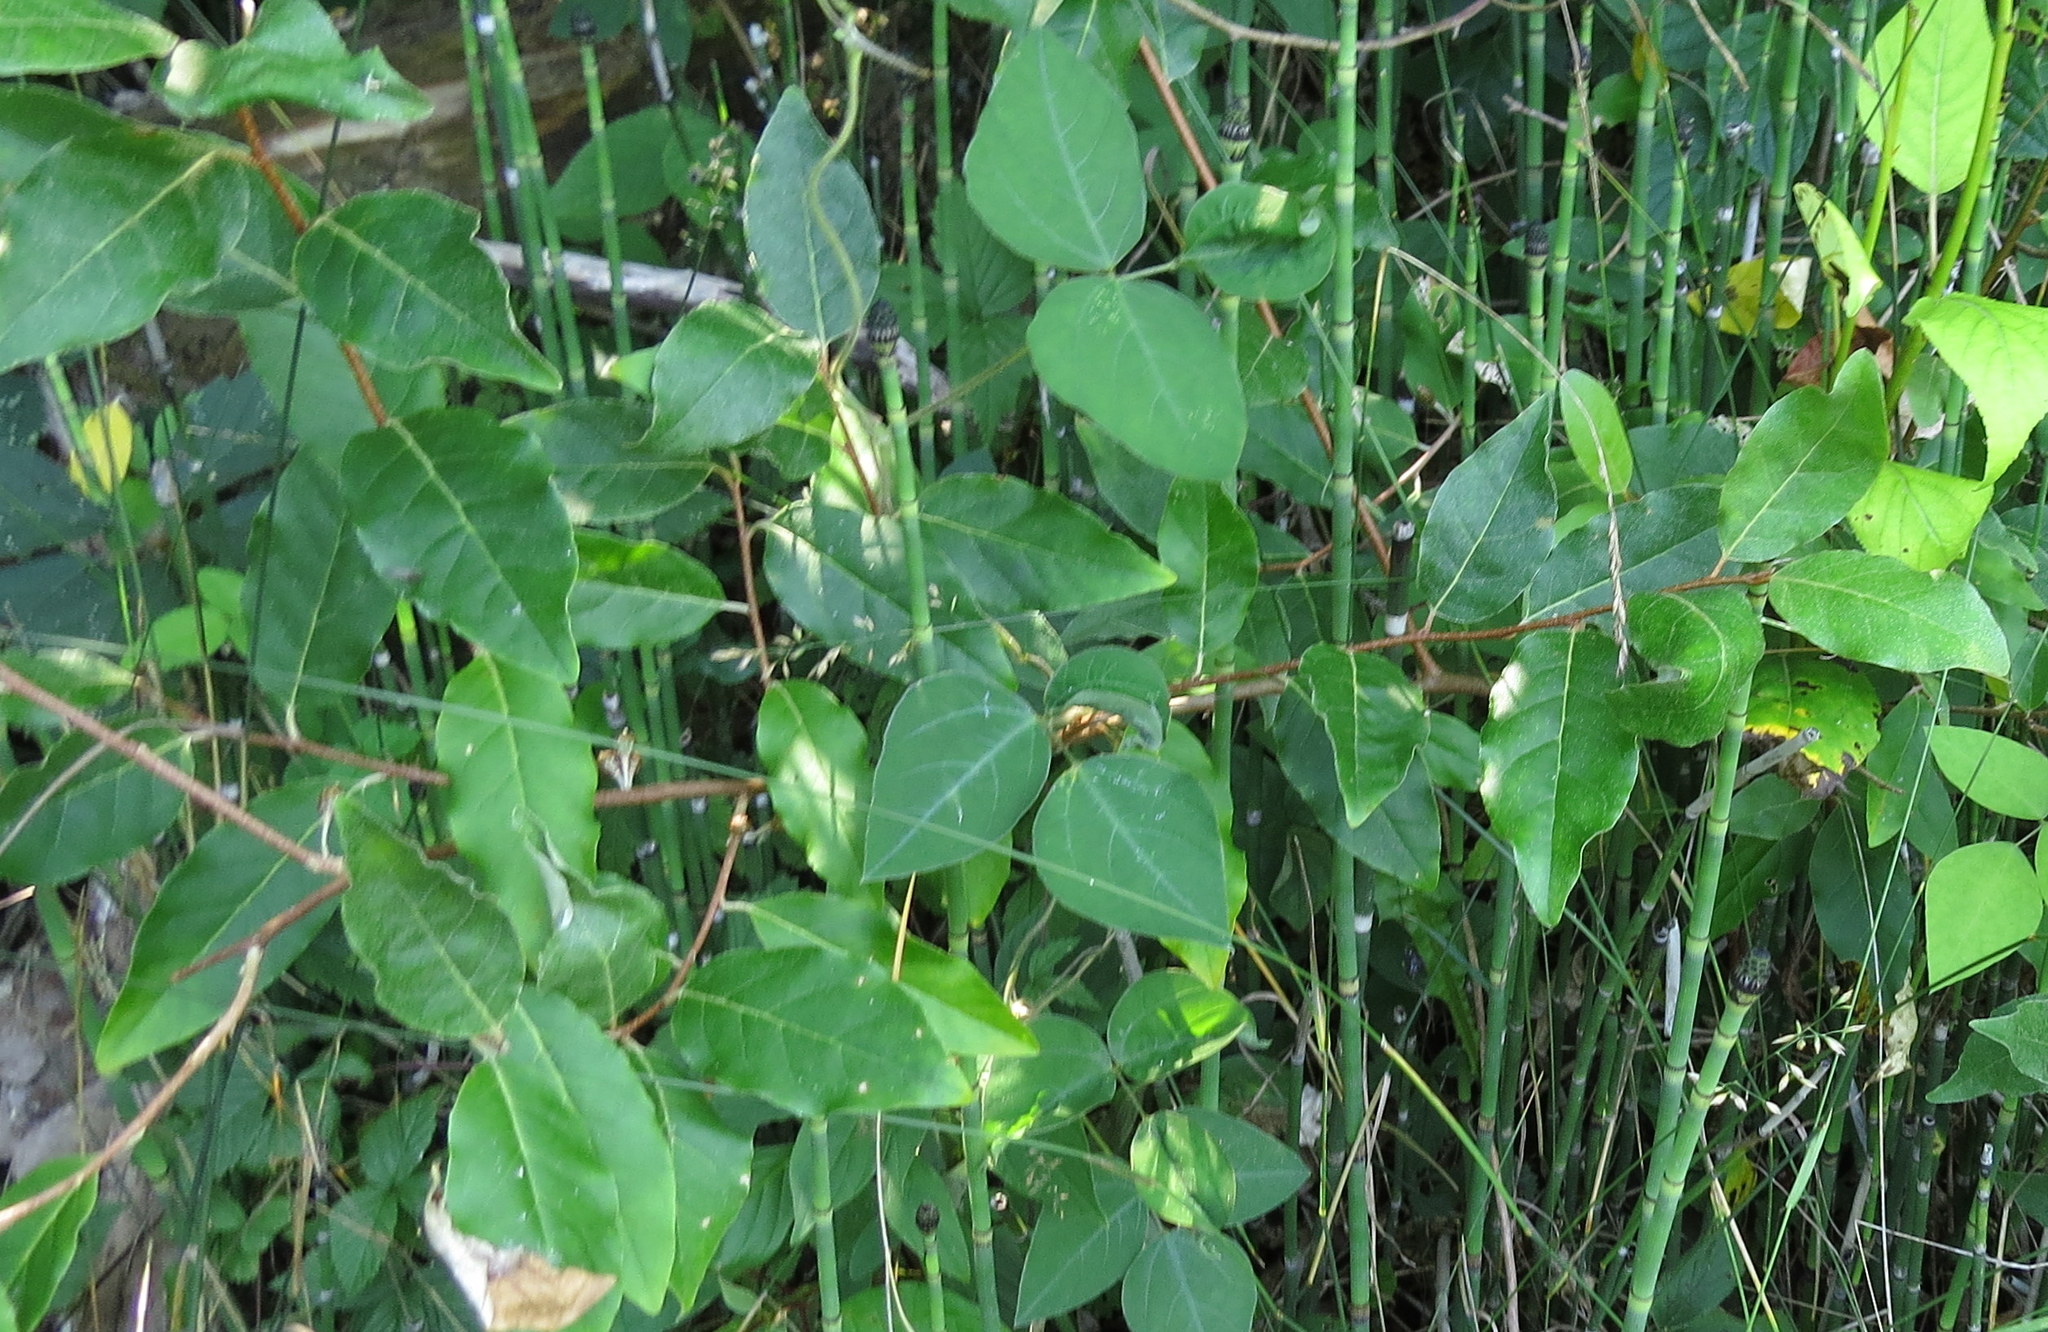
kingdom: Plantae
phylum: Tracheophyta
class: Magnoliopsida
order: Rosales
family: Elaeagnaceae
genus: Elaeagnus
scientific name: Elaeagnus umbellata
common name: Autumn olive
